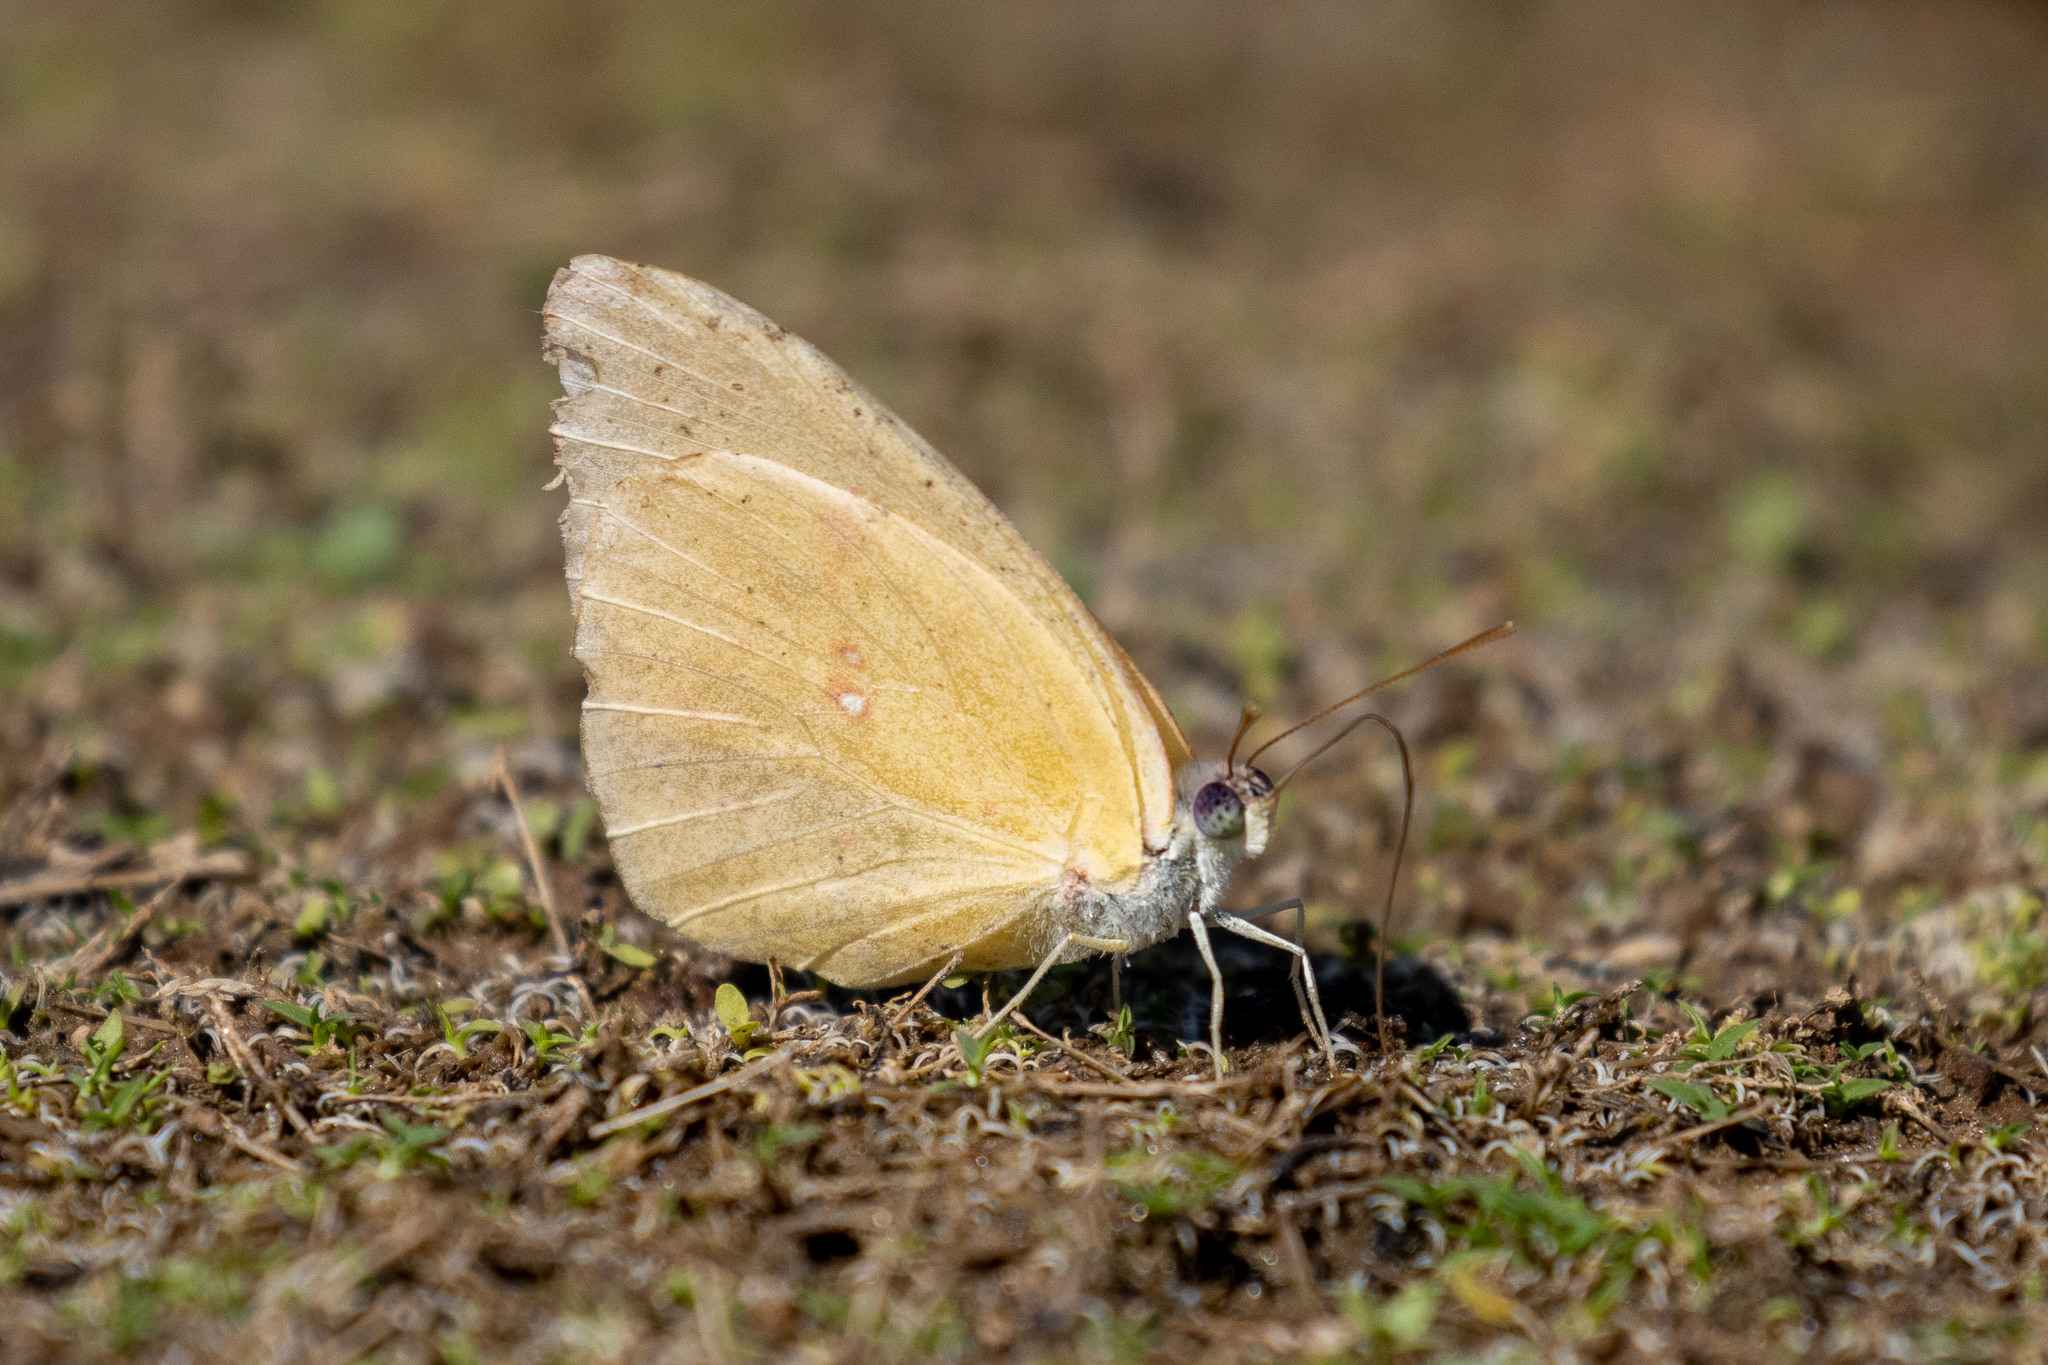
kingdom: Animalia
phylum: Arthropoda
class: Insecta
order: Lepidoptera
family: Pieridae
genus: Phoebis
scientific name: Phoebis marcellina
